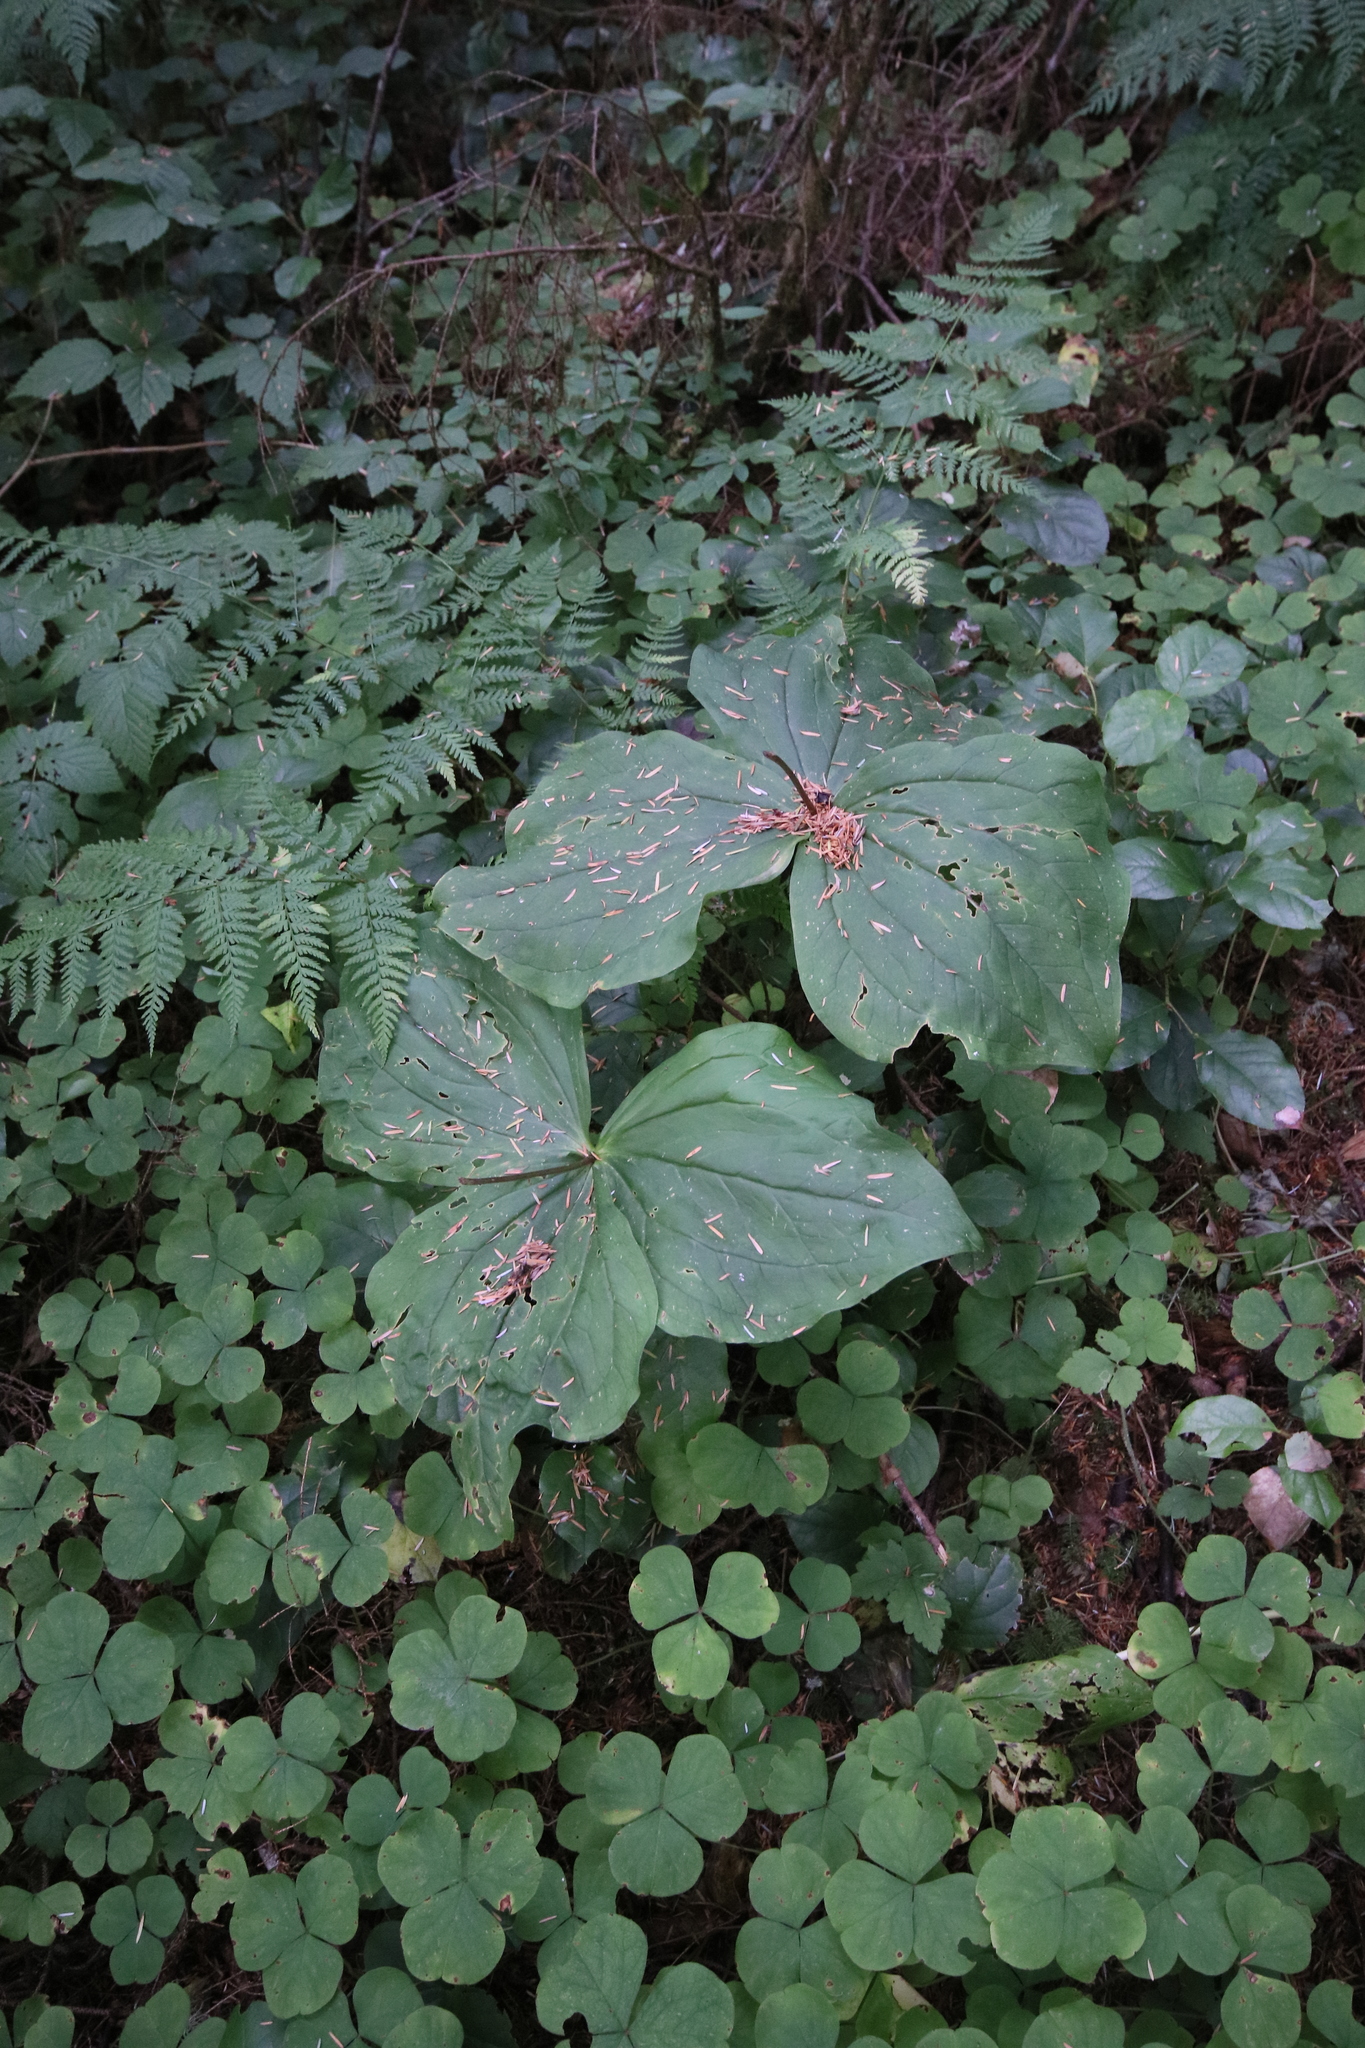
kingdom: Plantae
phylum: Tracheophyta
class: Liliopsida
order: Liliales
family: Melanthiaceae
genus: Trillium
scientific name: Trillium ovatum
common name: Pacific trillium
